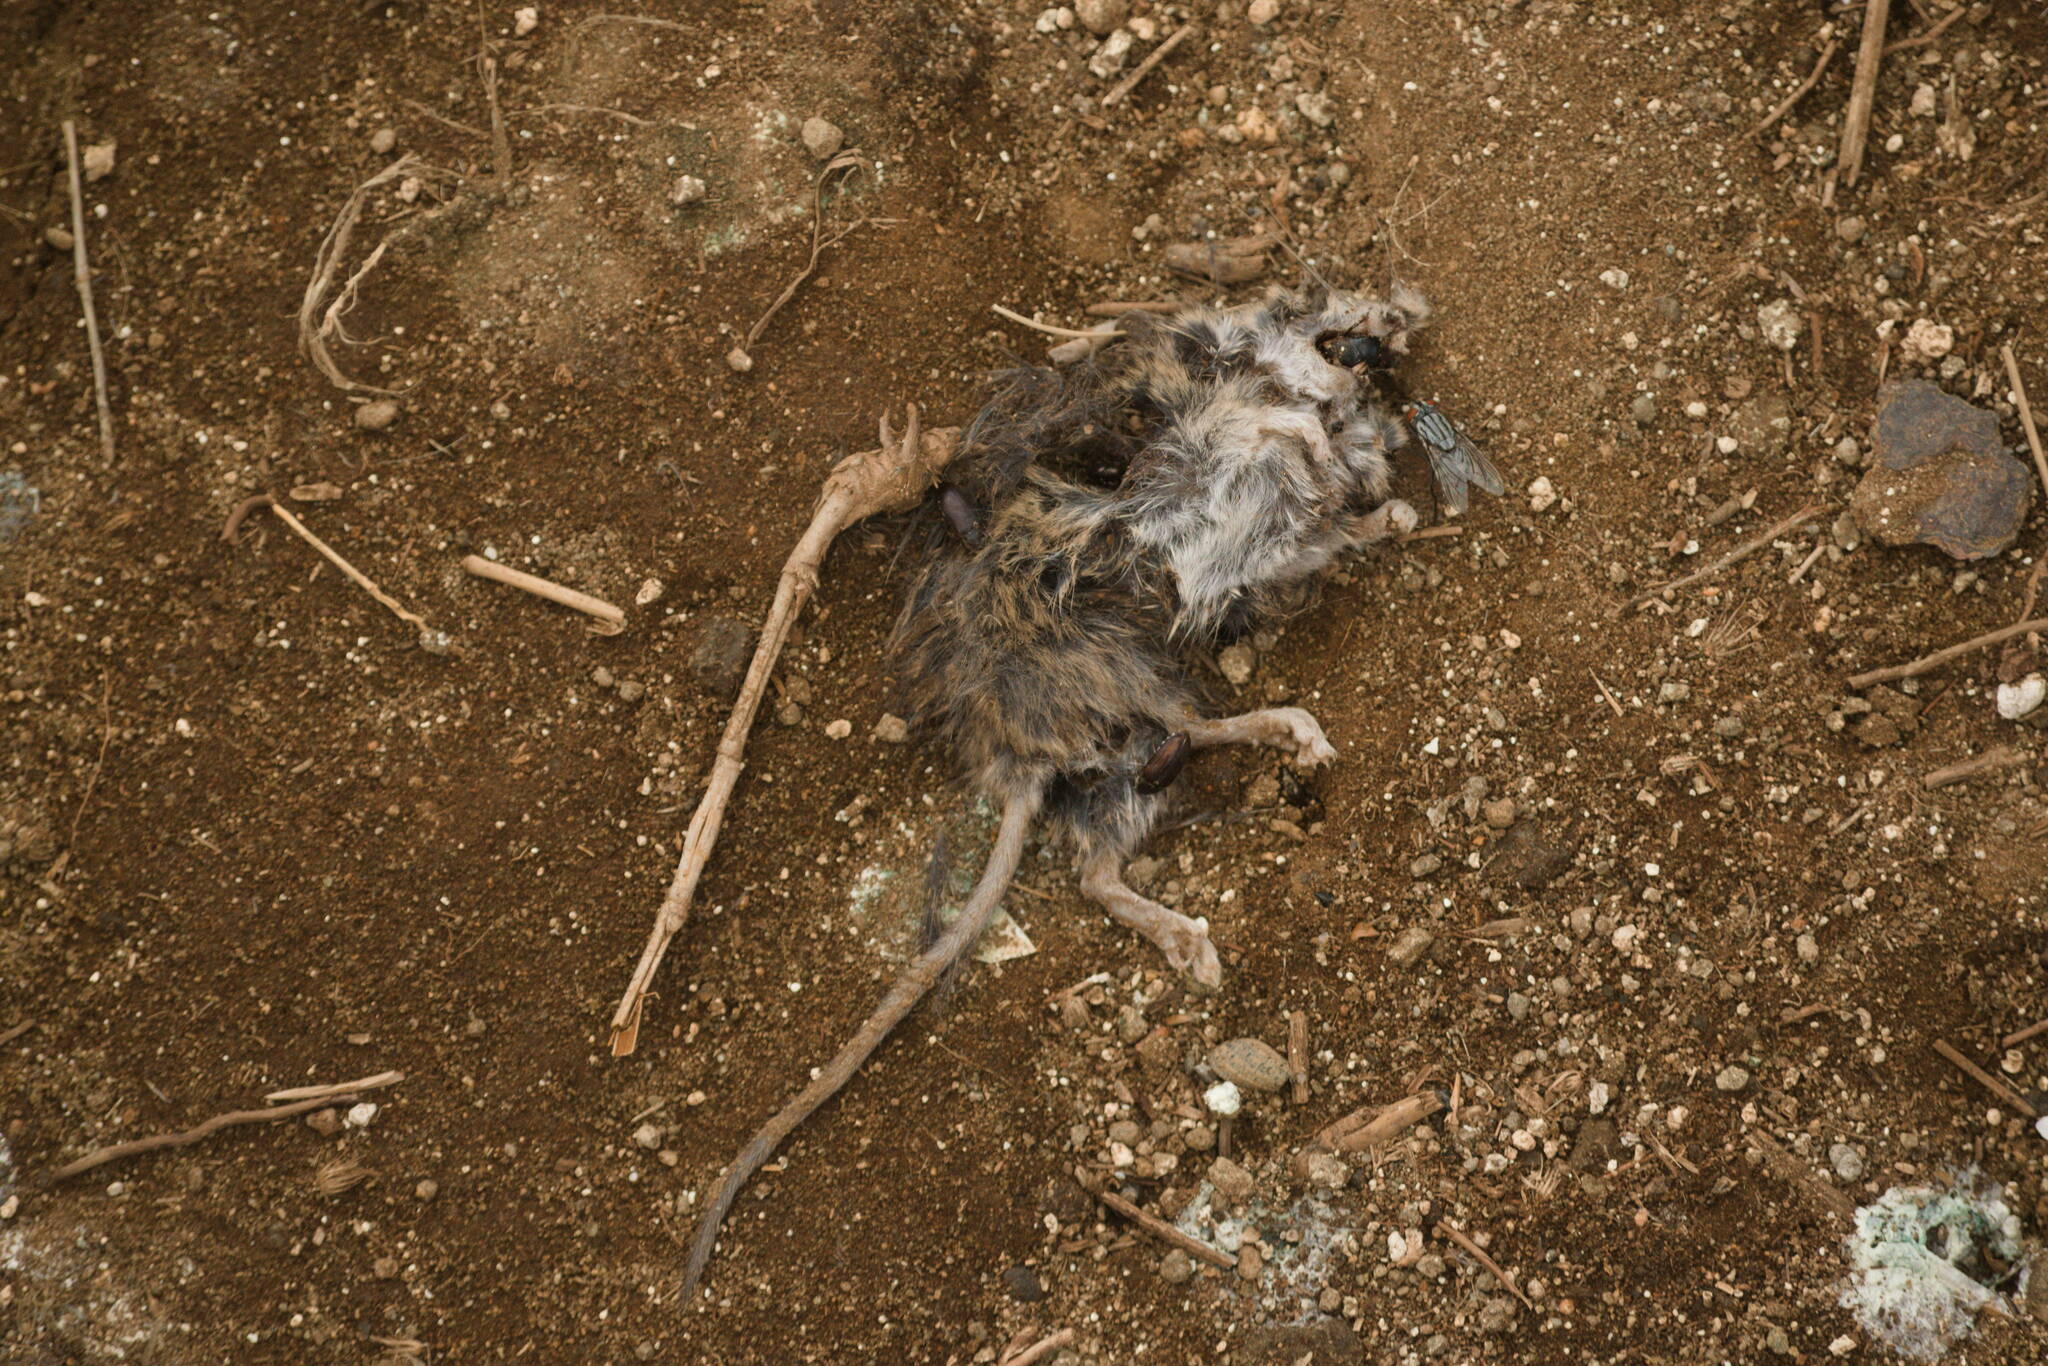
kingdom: Animalia
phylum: Chordata
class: Mammalia
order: Rodentia
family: Muridae
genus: Mus
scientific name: Mus musculus
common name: House mouse
